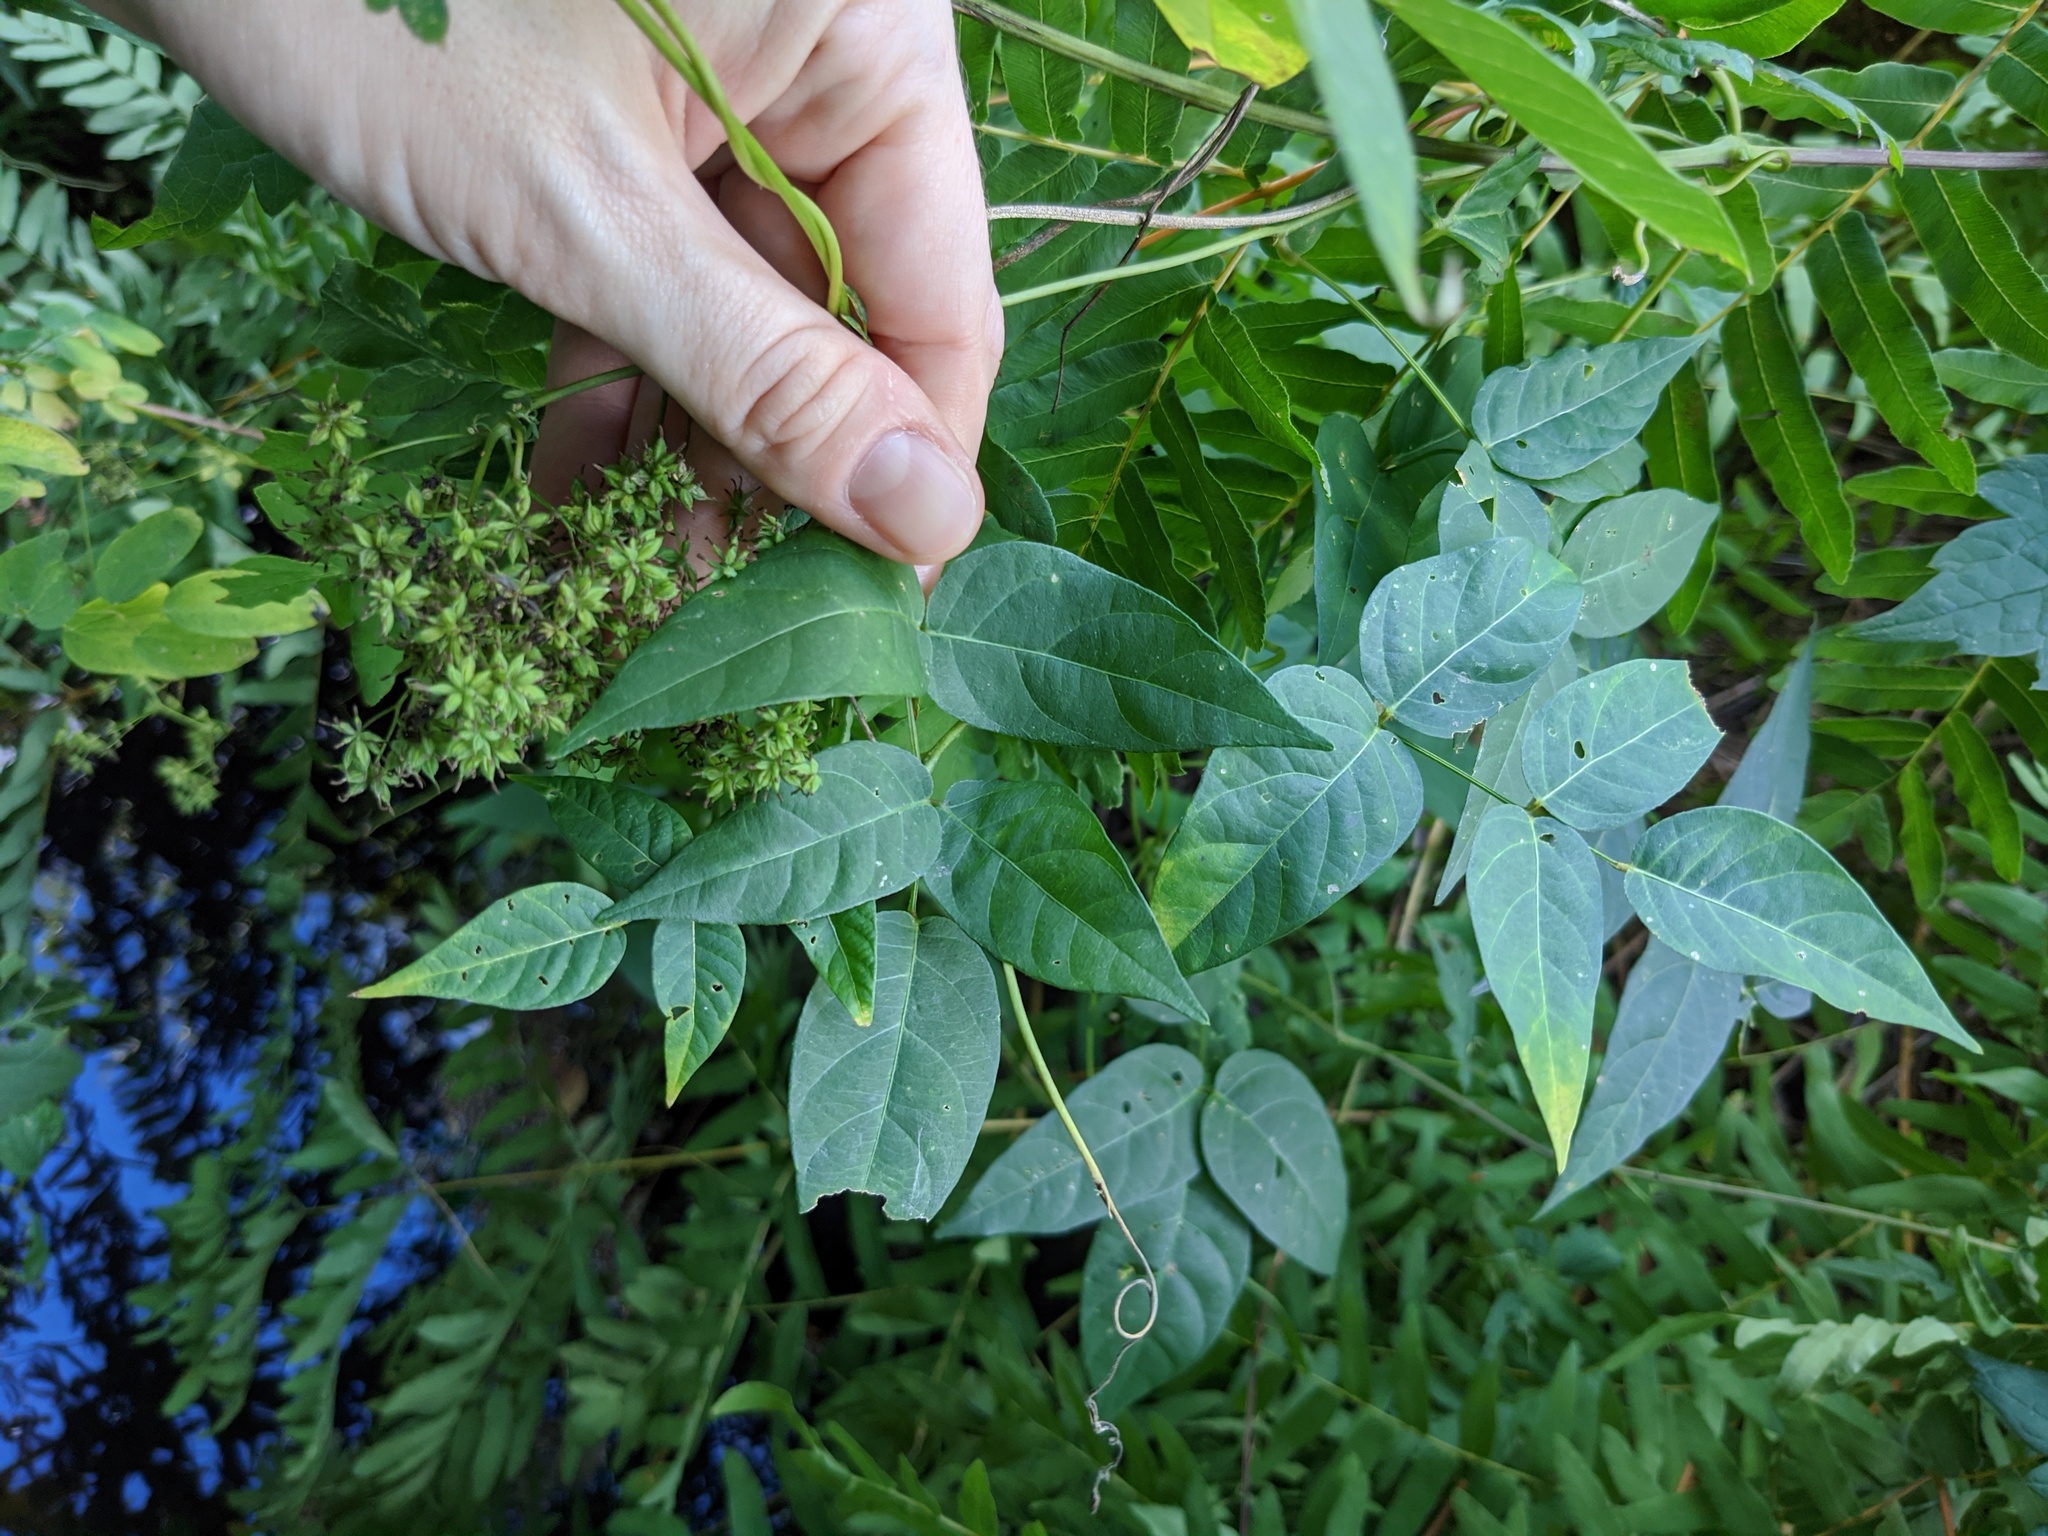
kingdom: Plantae
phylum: Tracheophyta
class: Magnoliopsida
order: Fabales
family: Fabaceae
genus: Apios
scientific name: Apios americana
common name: American potato-bean
